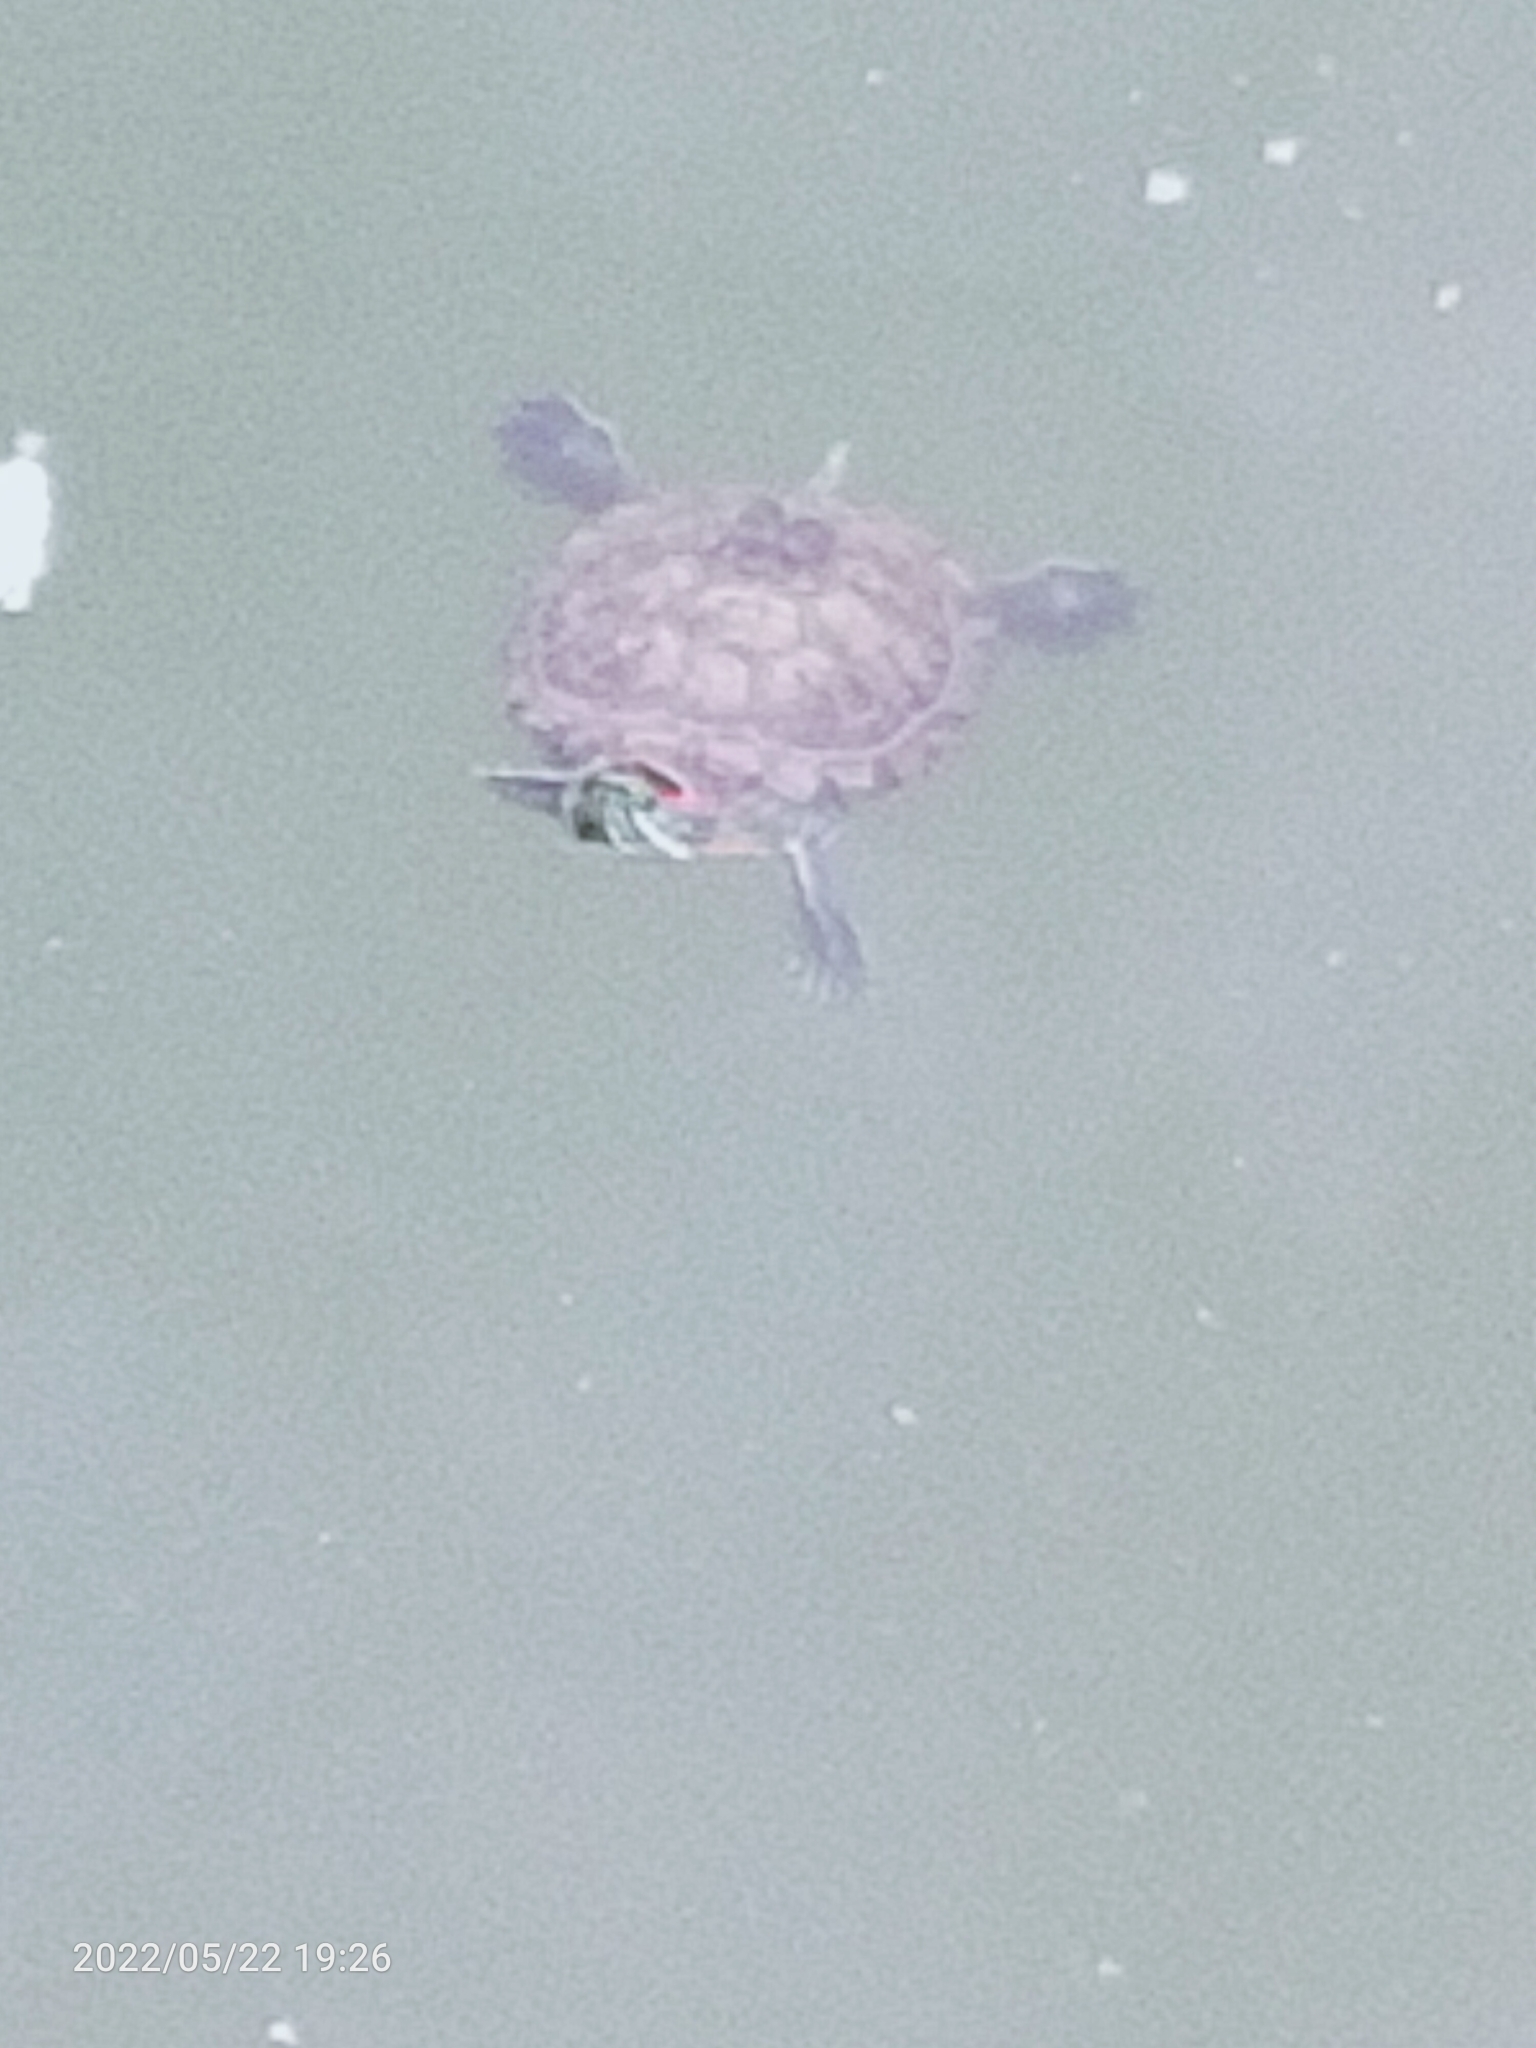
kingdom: Animalia
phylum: Chordata
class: Testudines
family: Emydidae
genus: Trachemys
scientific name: Trachemys scripta
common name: Slider
